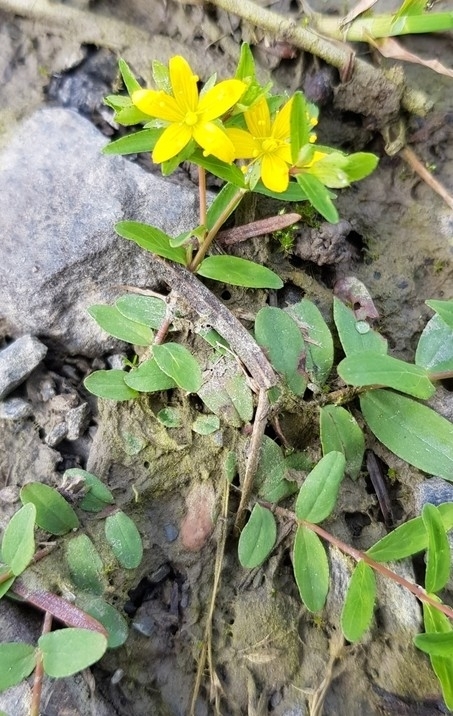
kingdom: Plantae
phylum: Tracheophyta
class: Magnoliopsida
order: Malpighiales
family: Hypericaceae
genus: Hypericum
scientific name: Hypericum humifusum
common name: Trailing st. john's-wort
